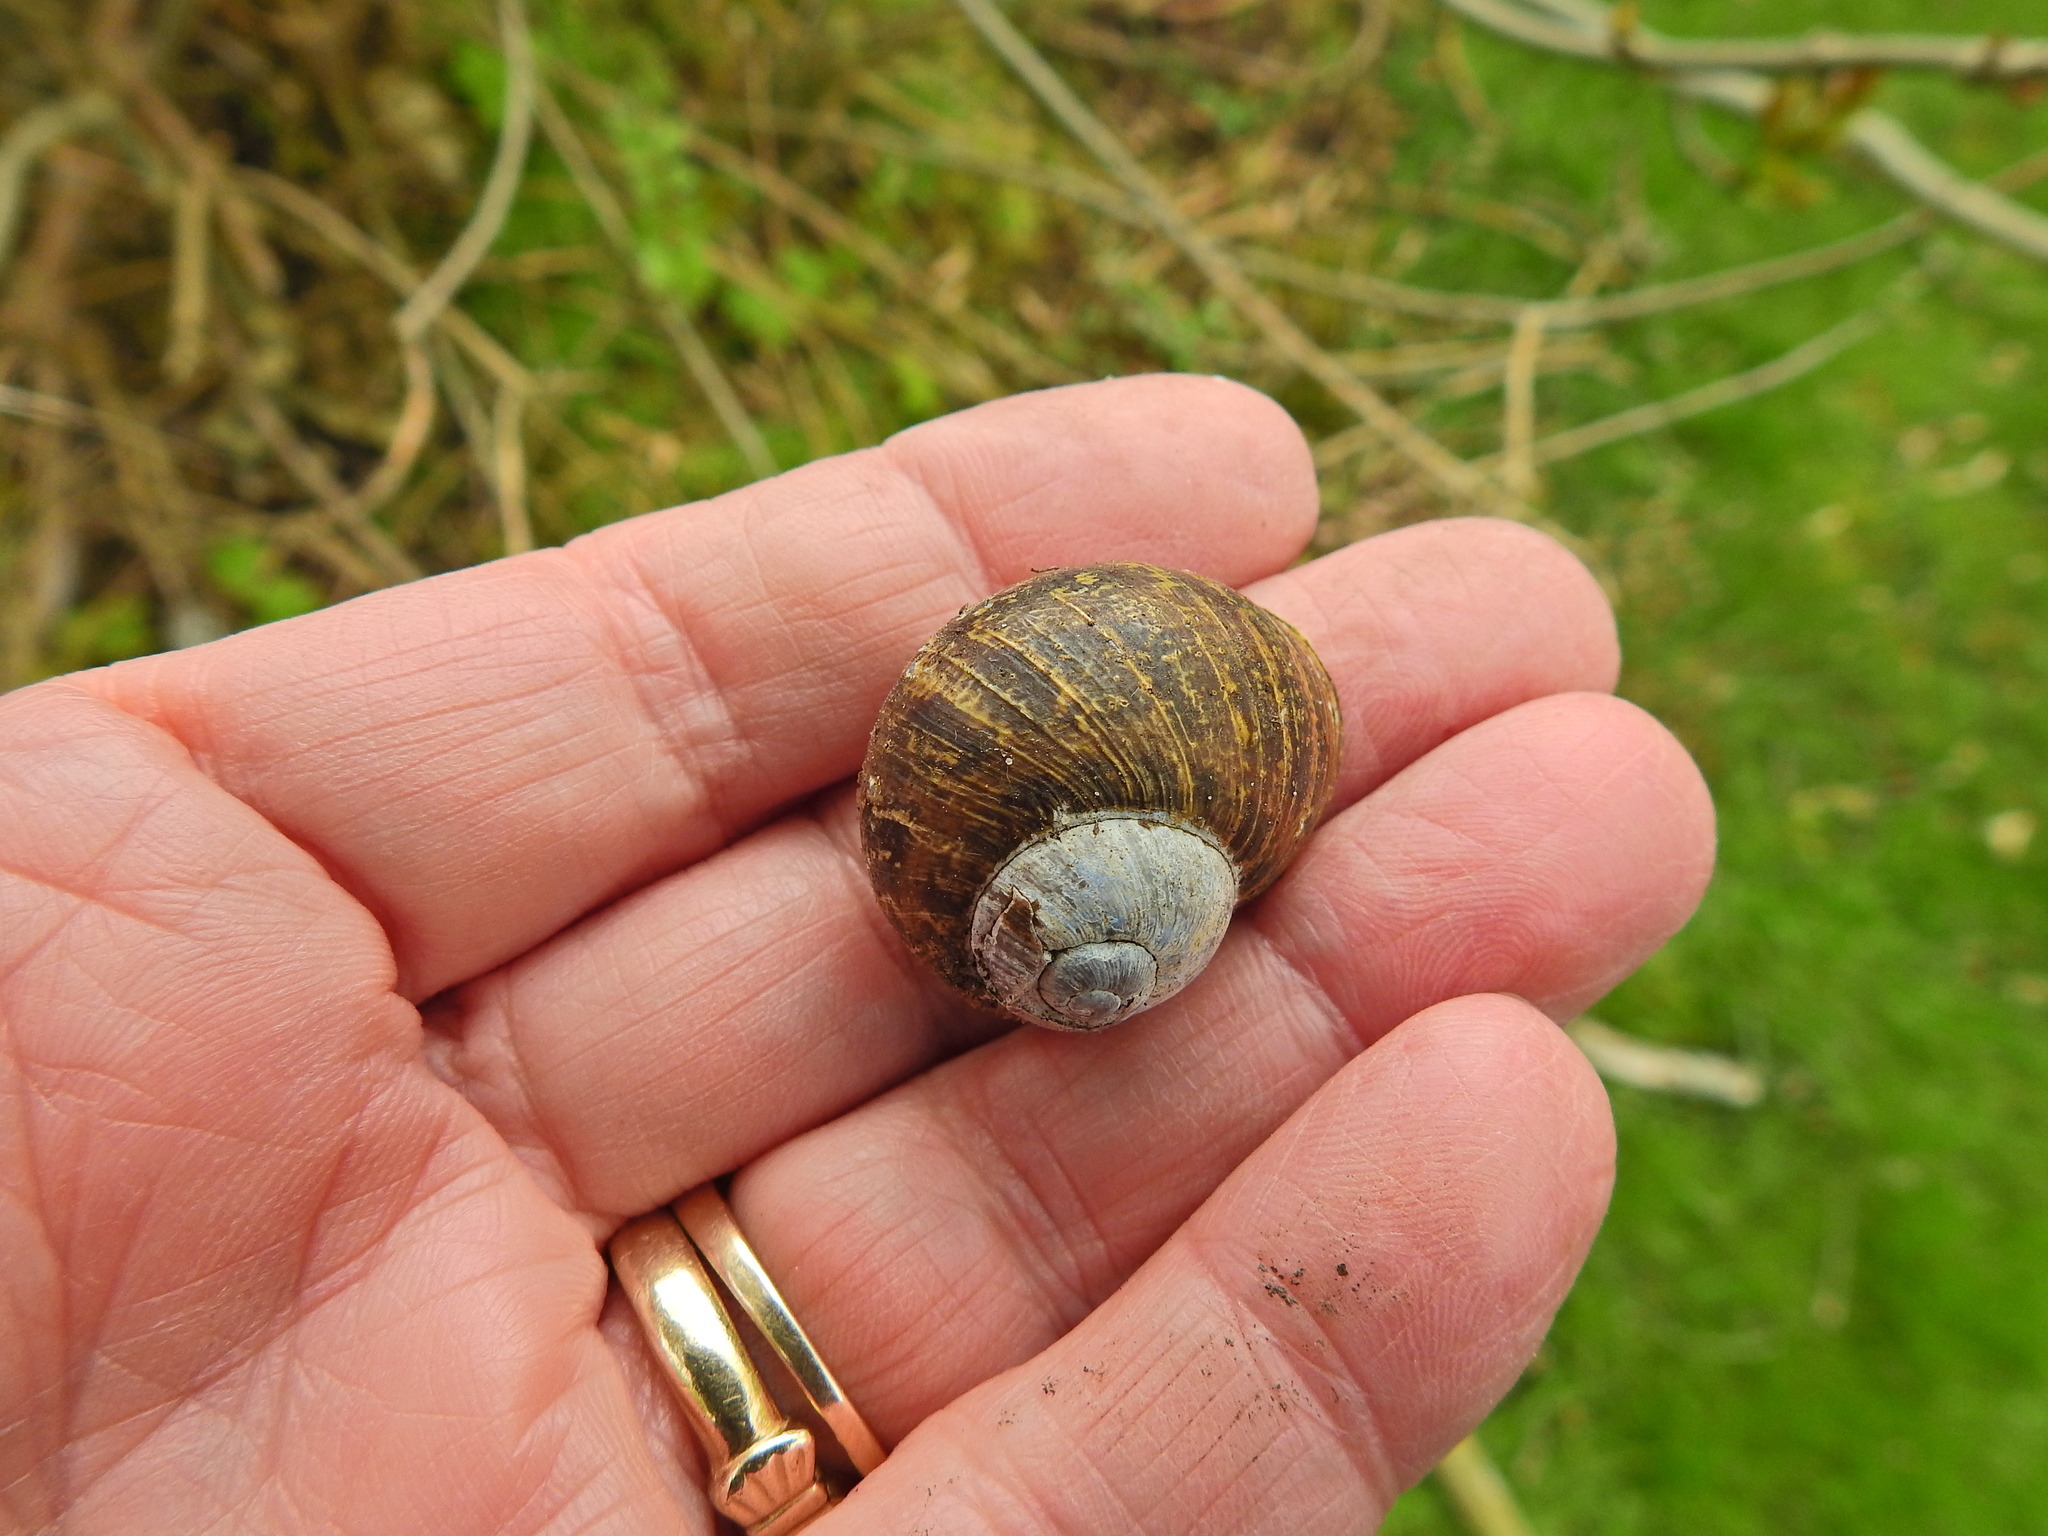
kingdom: Animalia
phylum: Mollusca
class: Gastropoda
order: Stylommatophora
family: Helicidae
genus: Cornu
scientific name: Cornu aspersum
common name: Brown garden snail
